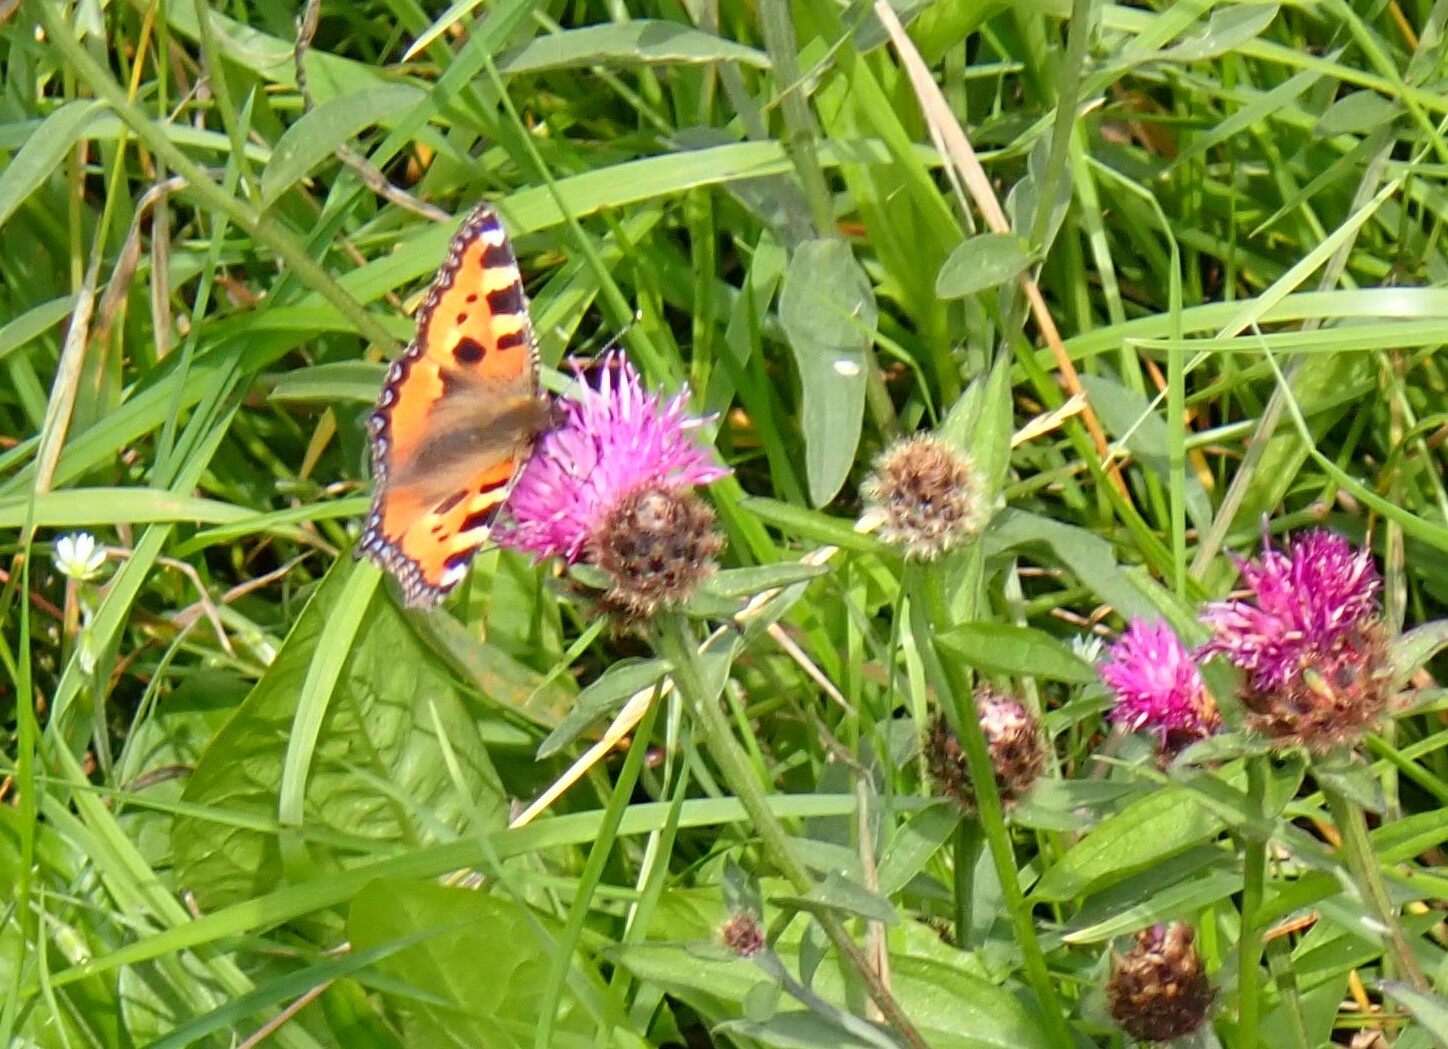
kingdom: Animalia
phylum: Arthropoda
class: Insecta
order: Lepidoptera
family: Nymphalidae
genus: Aglais
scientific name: Aglais urticae
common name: Small tortoiseshell
